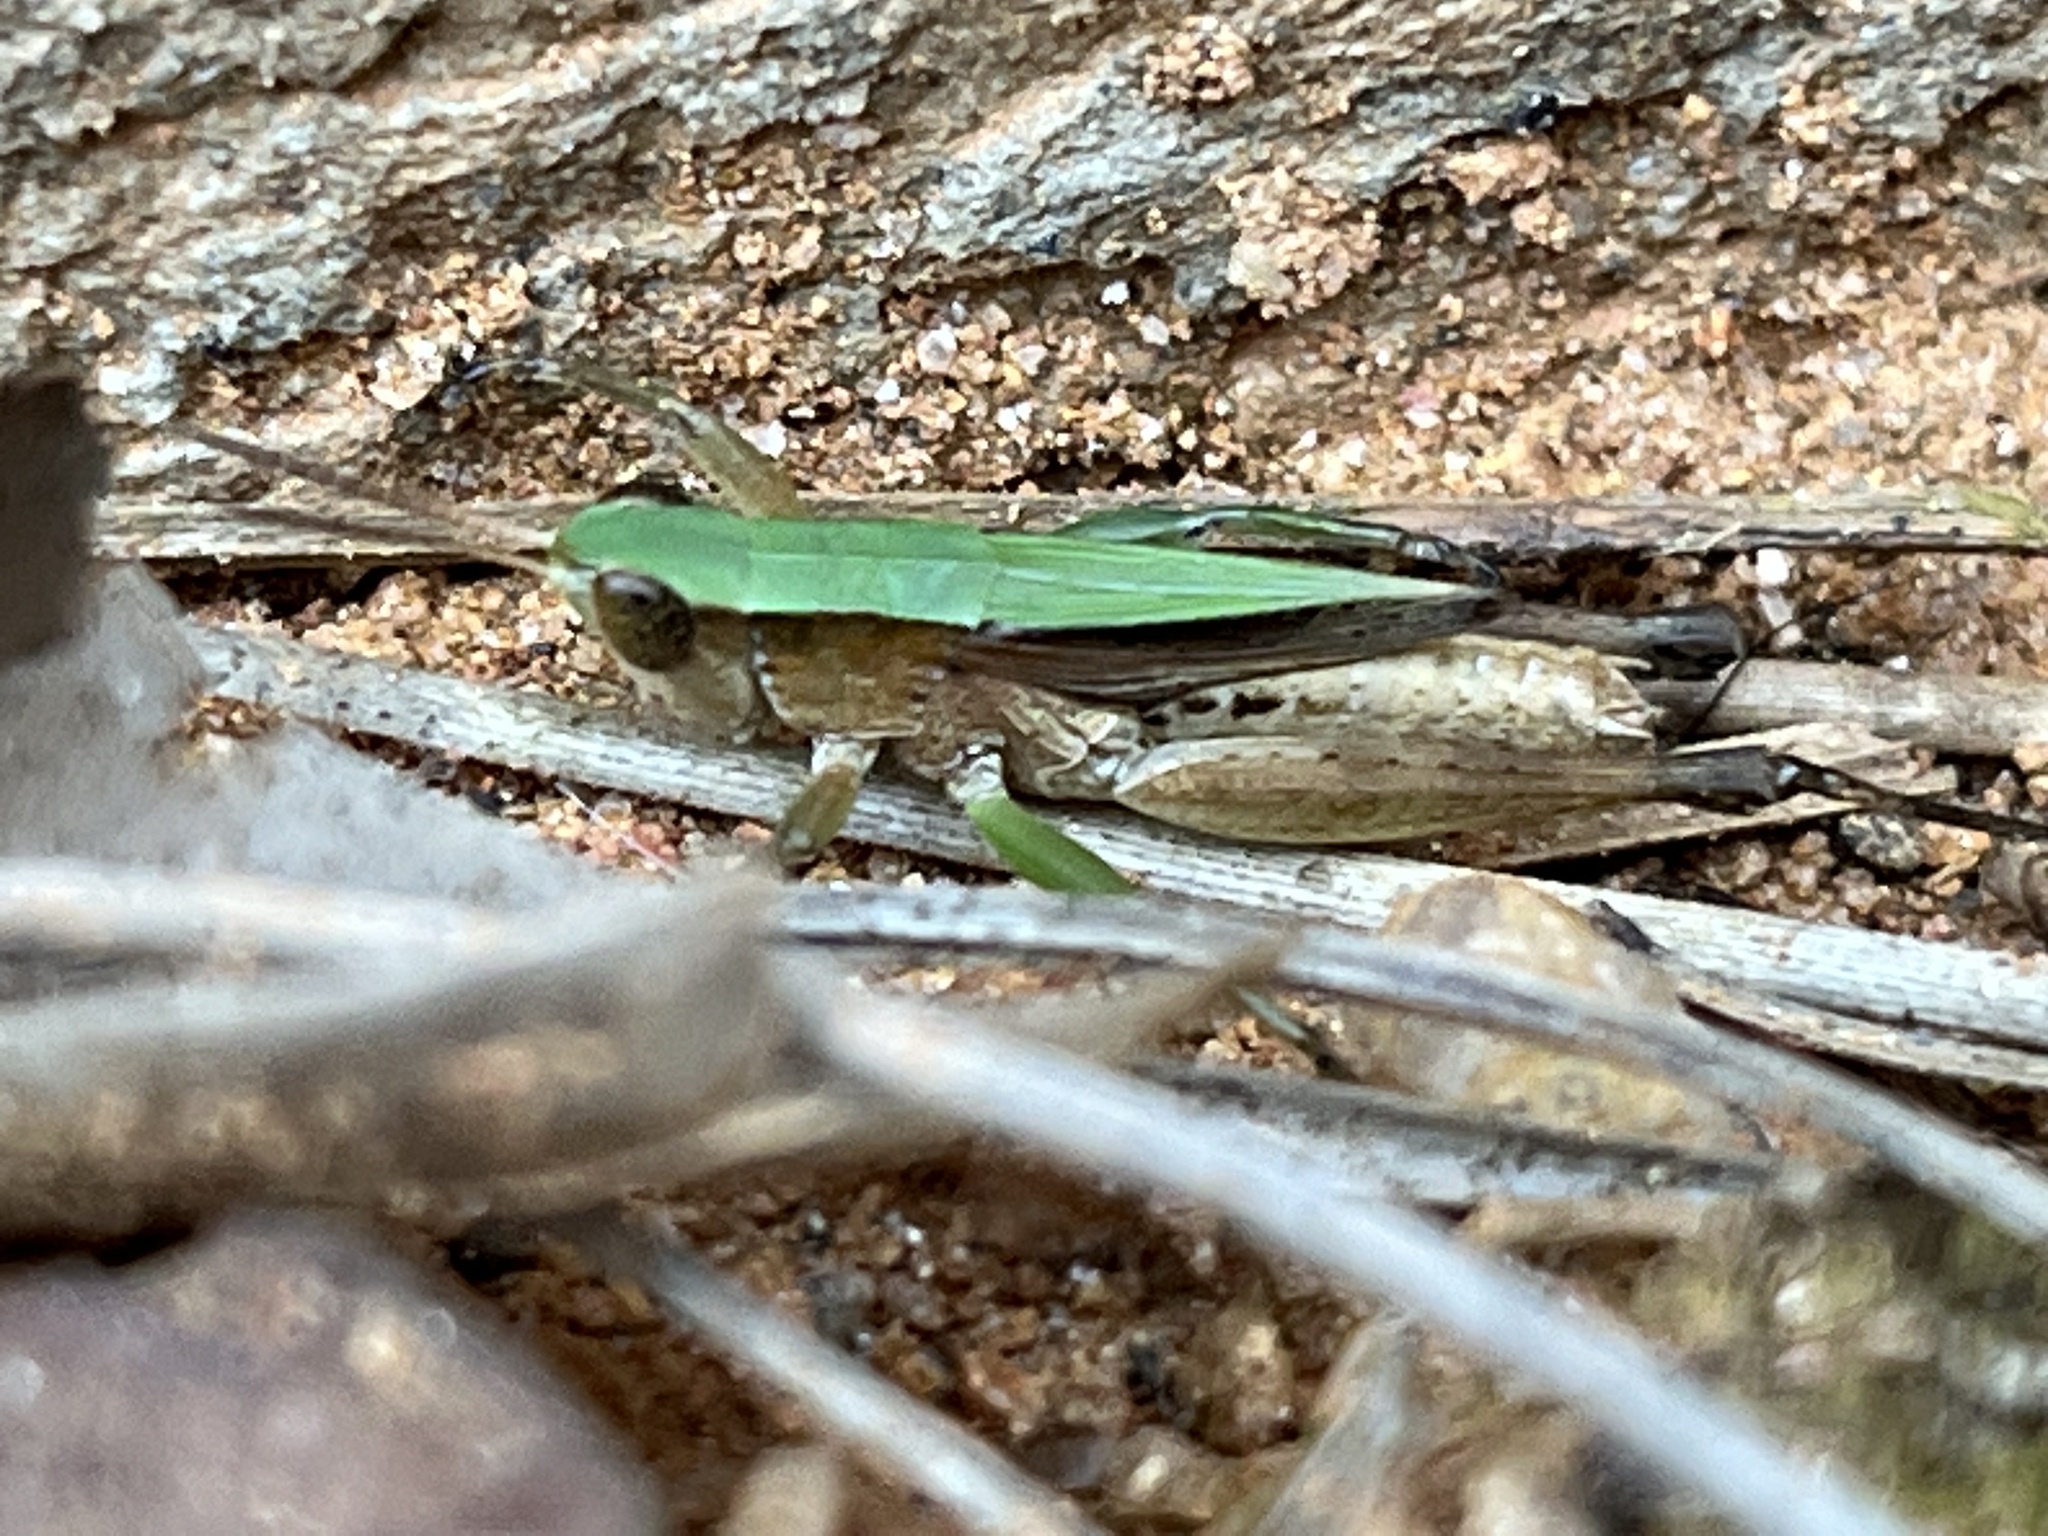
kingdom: Animalia
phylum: Arthropoda
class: Insecta
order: Orthoptera
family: Acrididae
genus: Dichromorpha
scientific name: Dichromorpha viridis
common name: Short-winged green grasshopper
